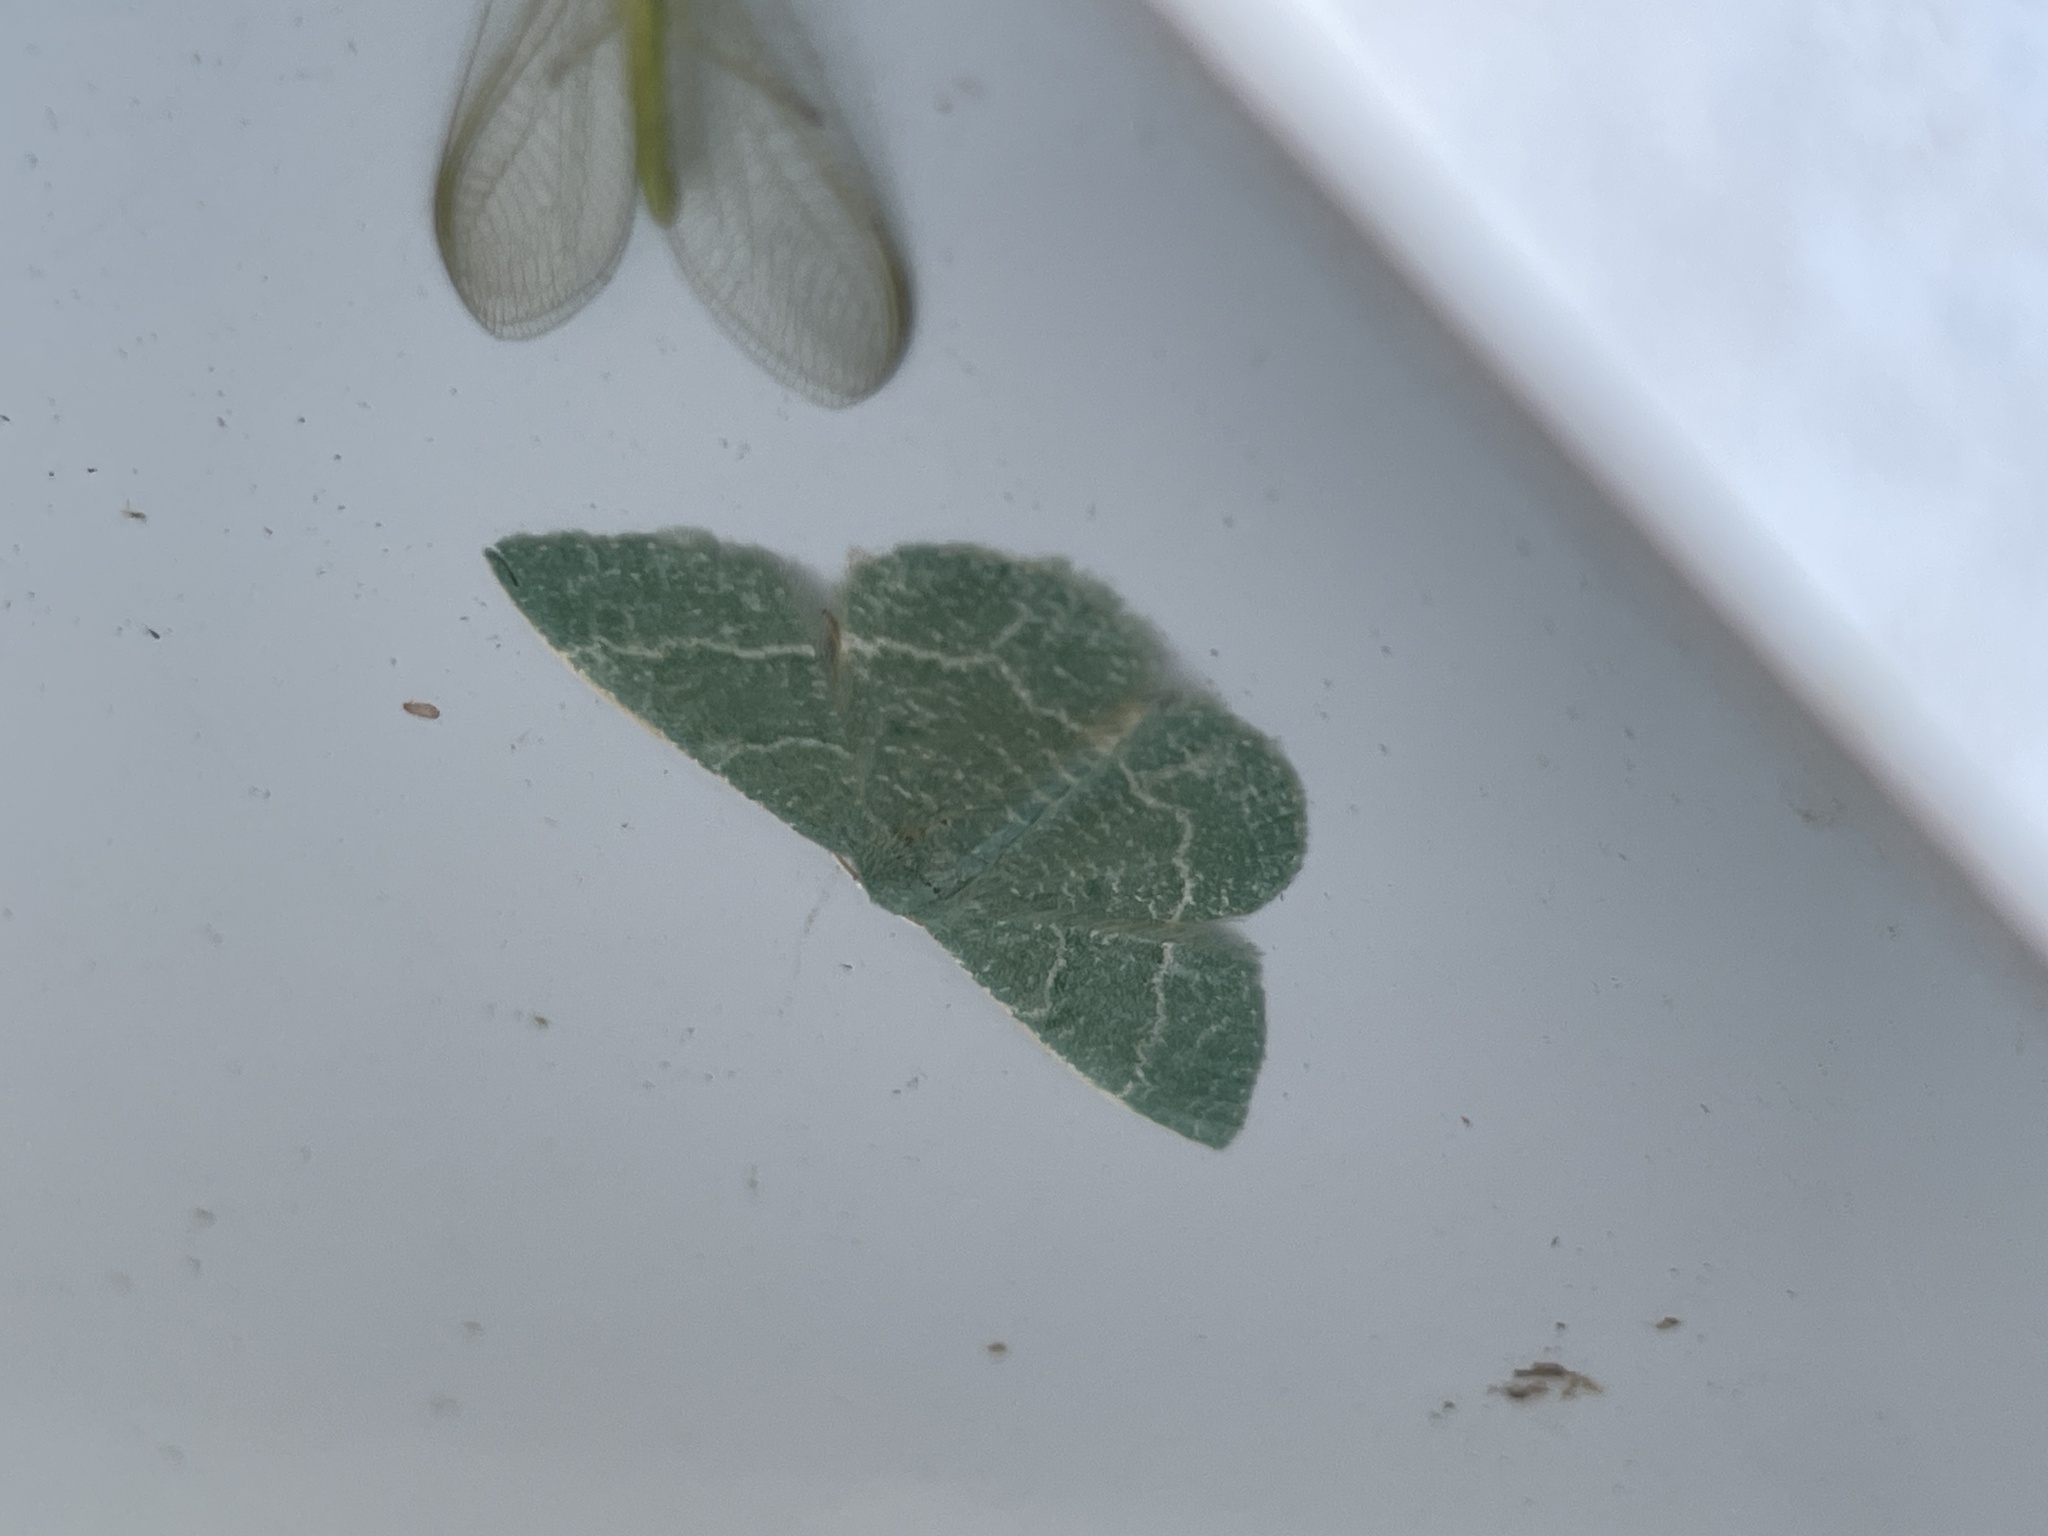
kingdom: Animalia
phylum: Arthropoda
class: Insecta
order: Lepidoptera
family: Geometridae
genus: Chlorissa
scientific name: Chlorissa etruscaria
